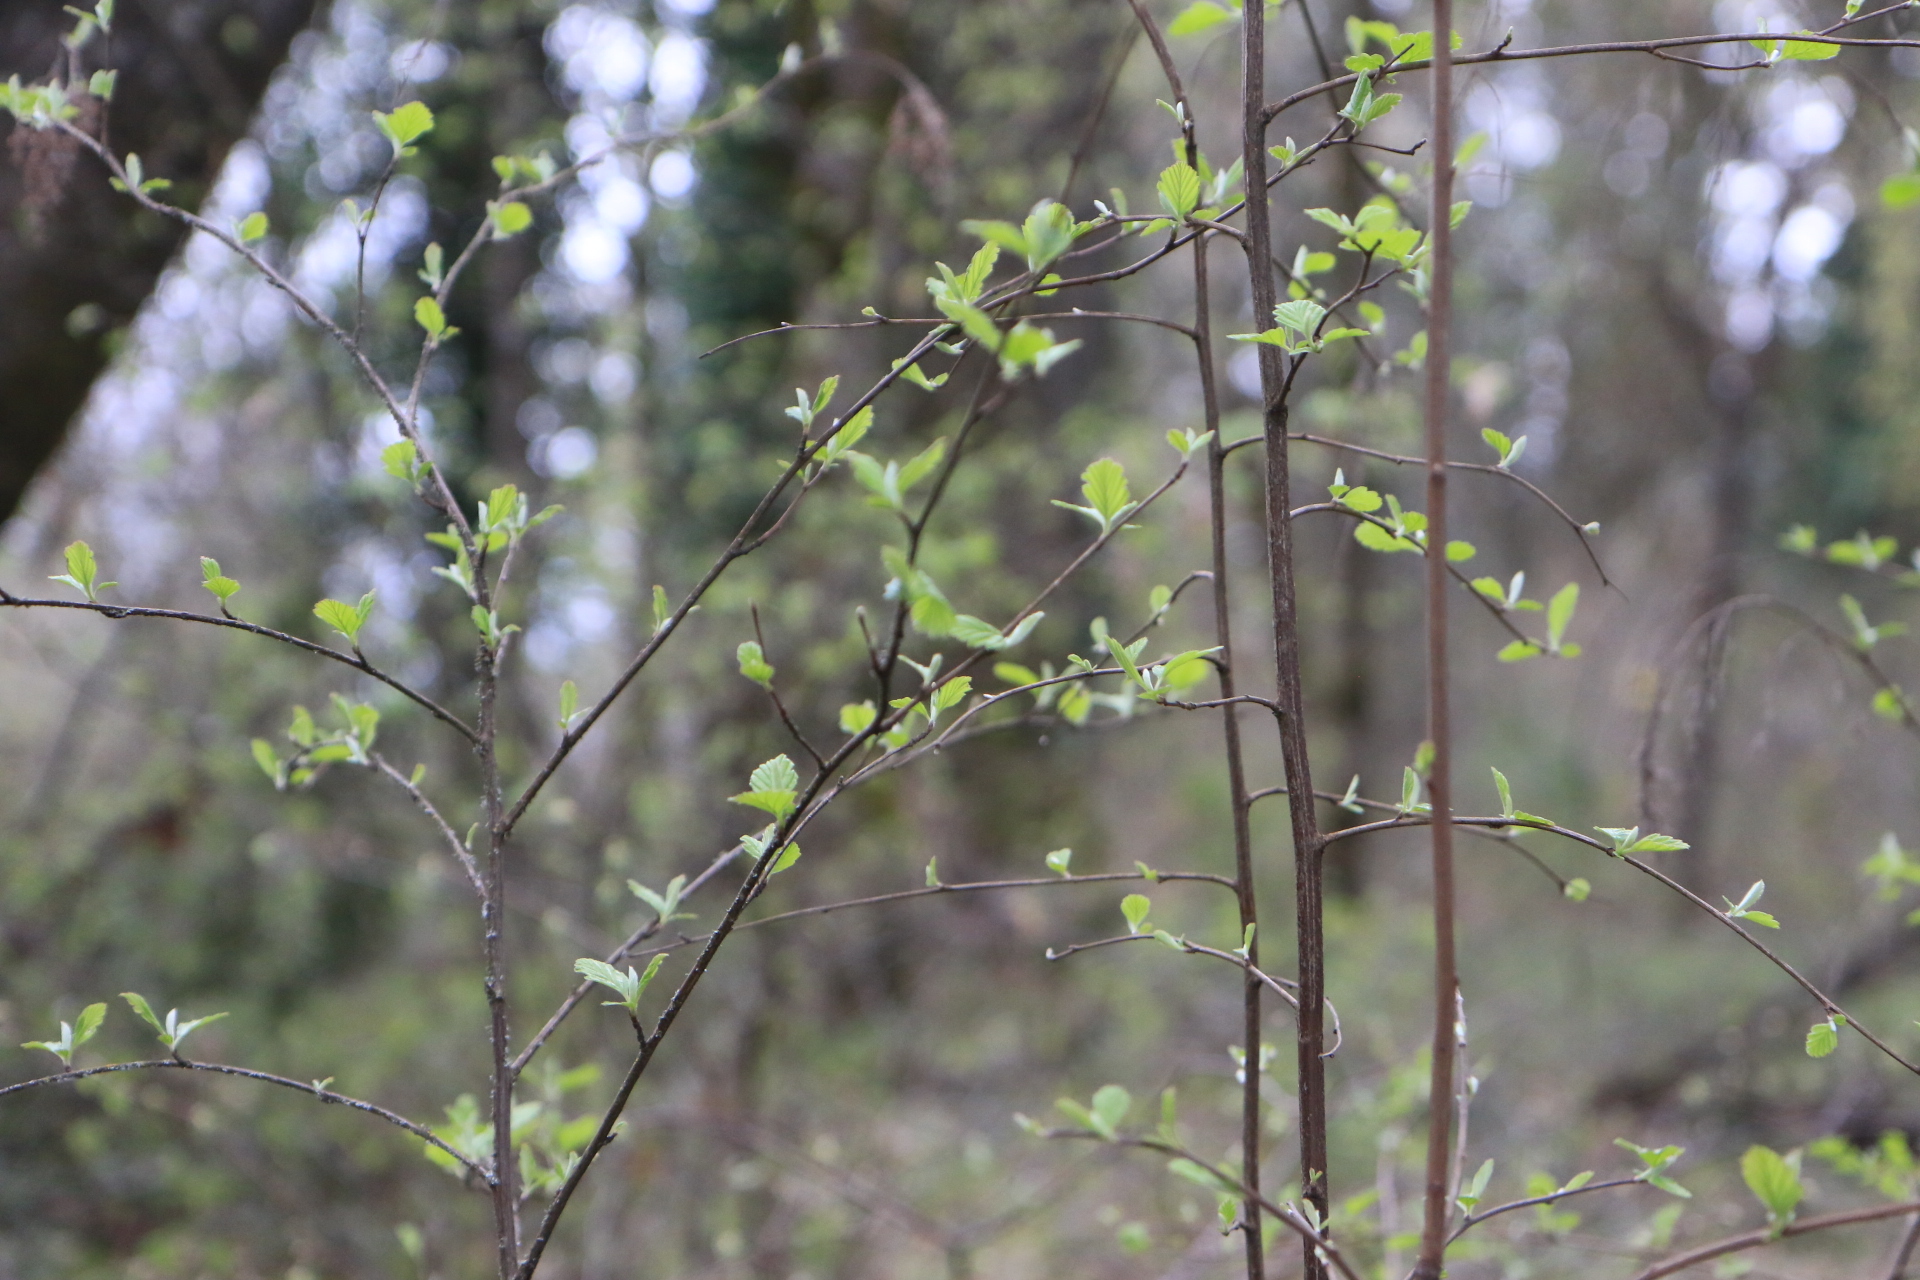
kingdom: Plantae
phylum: Tracheophyta
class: Magnoliopsida
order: Rosales
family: Rosaceae
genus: Holodiscus
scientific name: Holodiscus discolor
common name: Oceanspray
